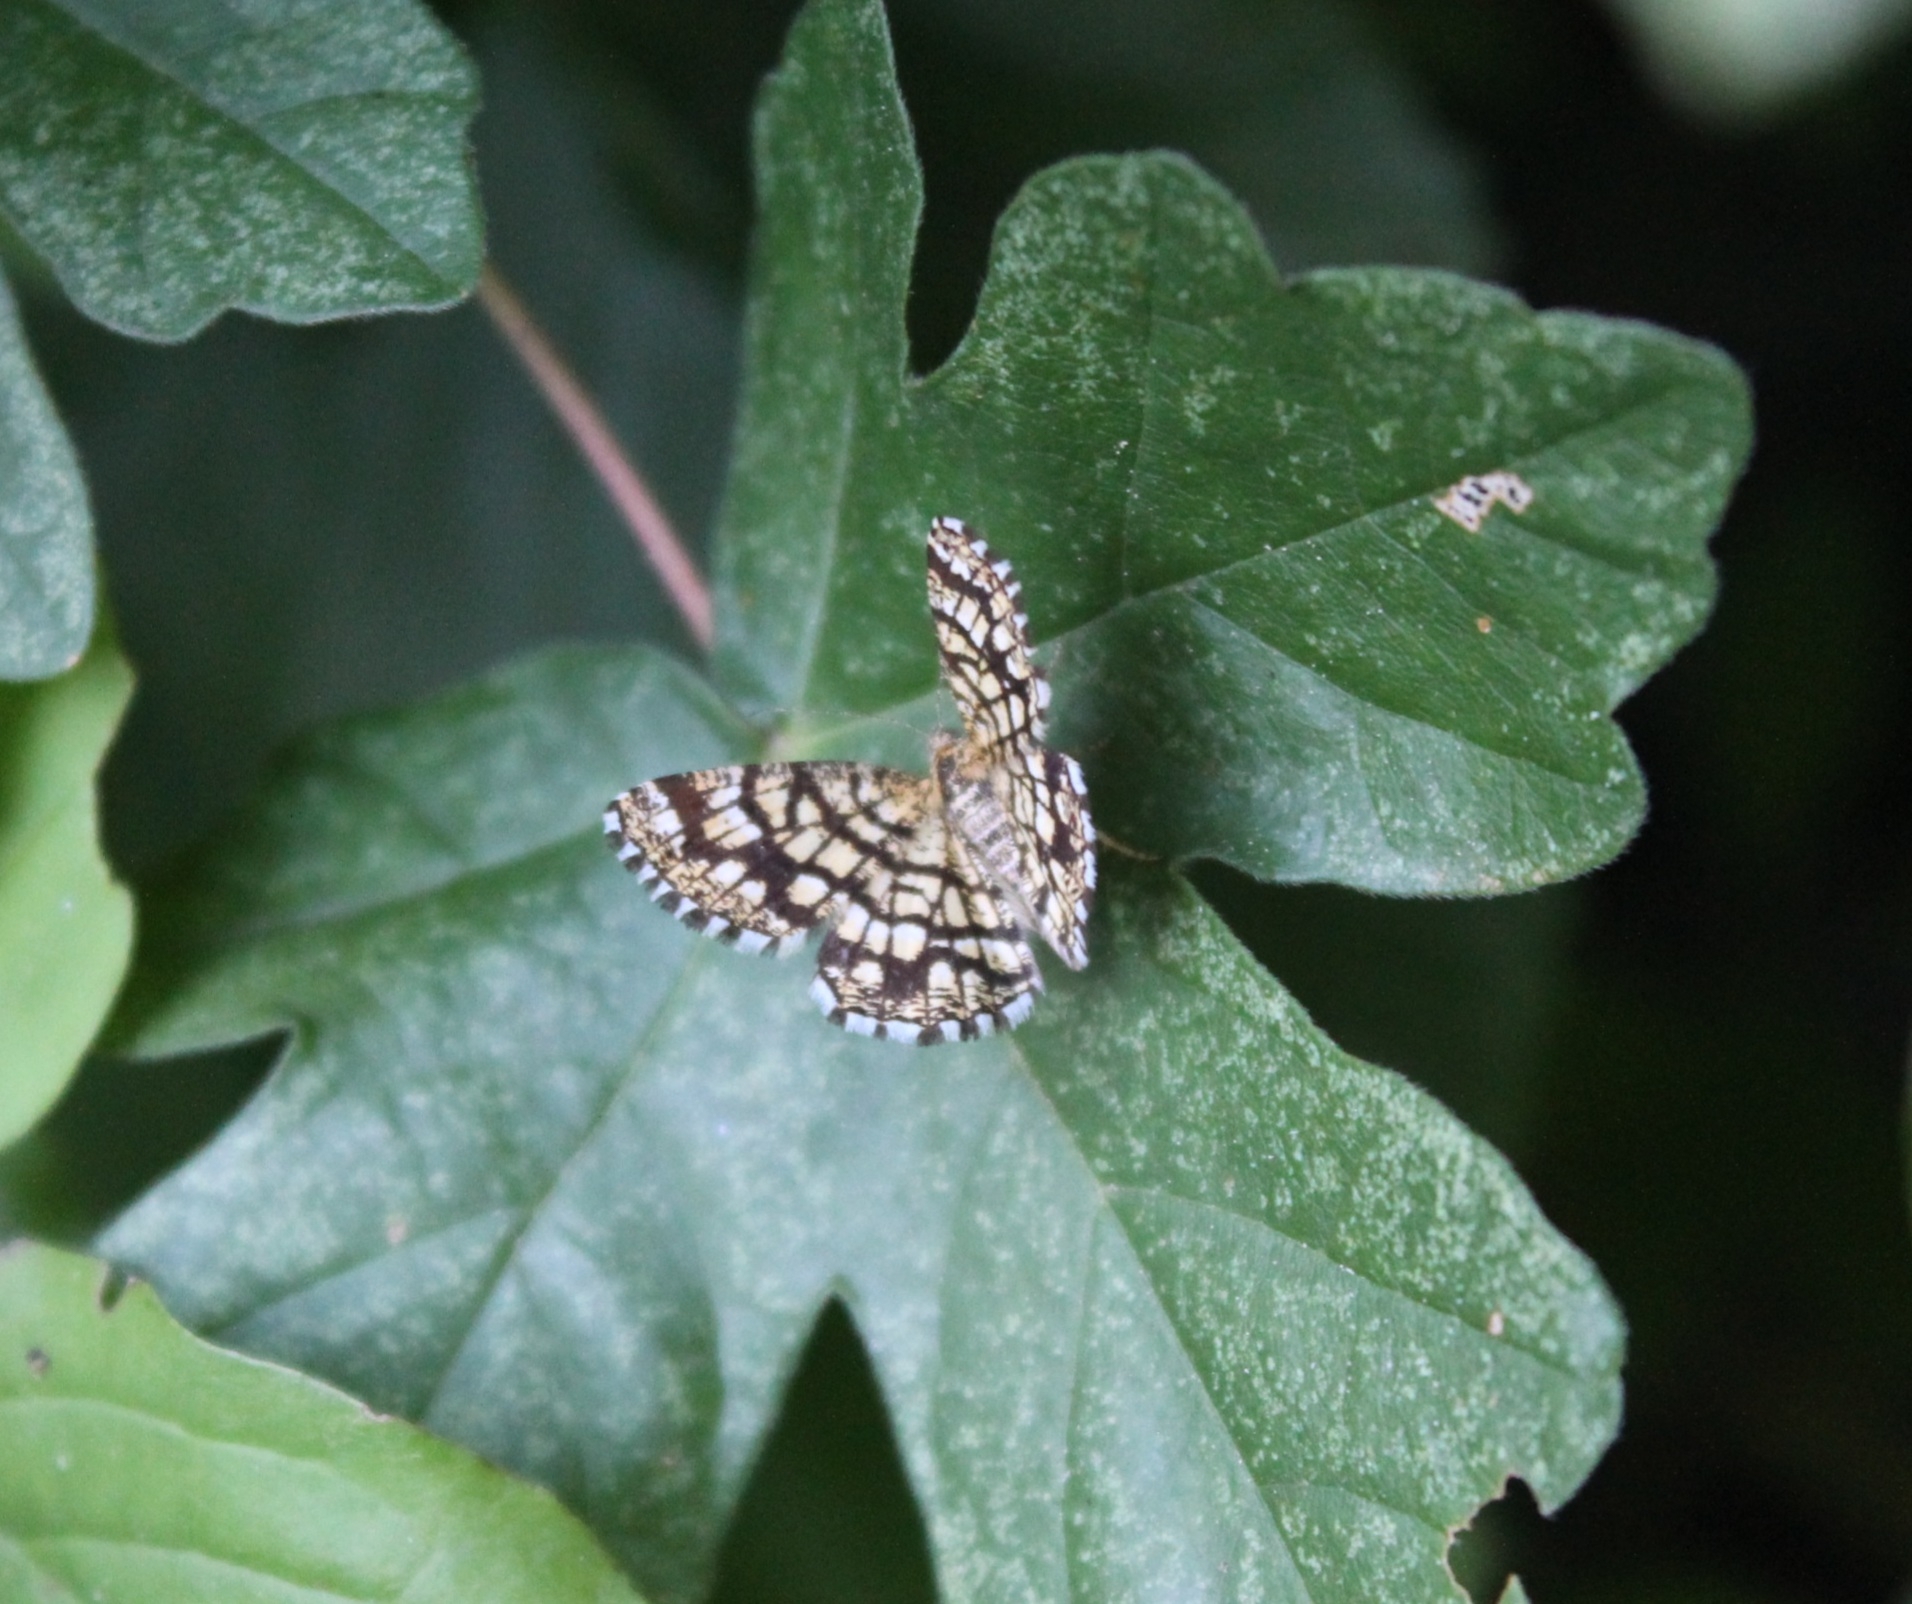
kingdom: Animalia
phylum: Arthropoda
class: Insecta
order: Lepidoptera
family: Geometridae
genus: Chiasmia
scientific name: Chiasmia clathrata
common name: Latticed heath
